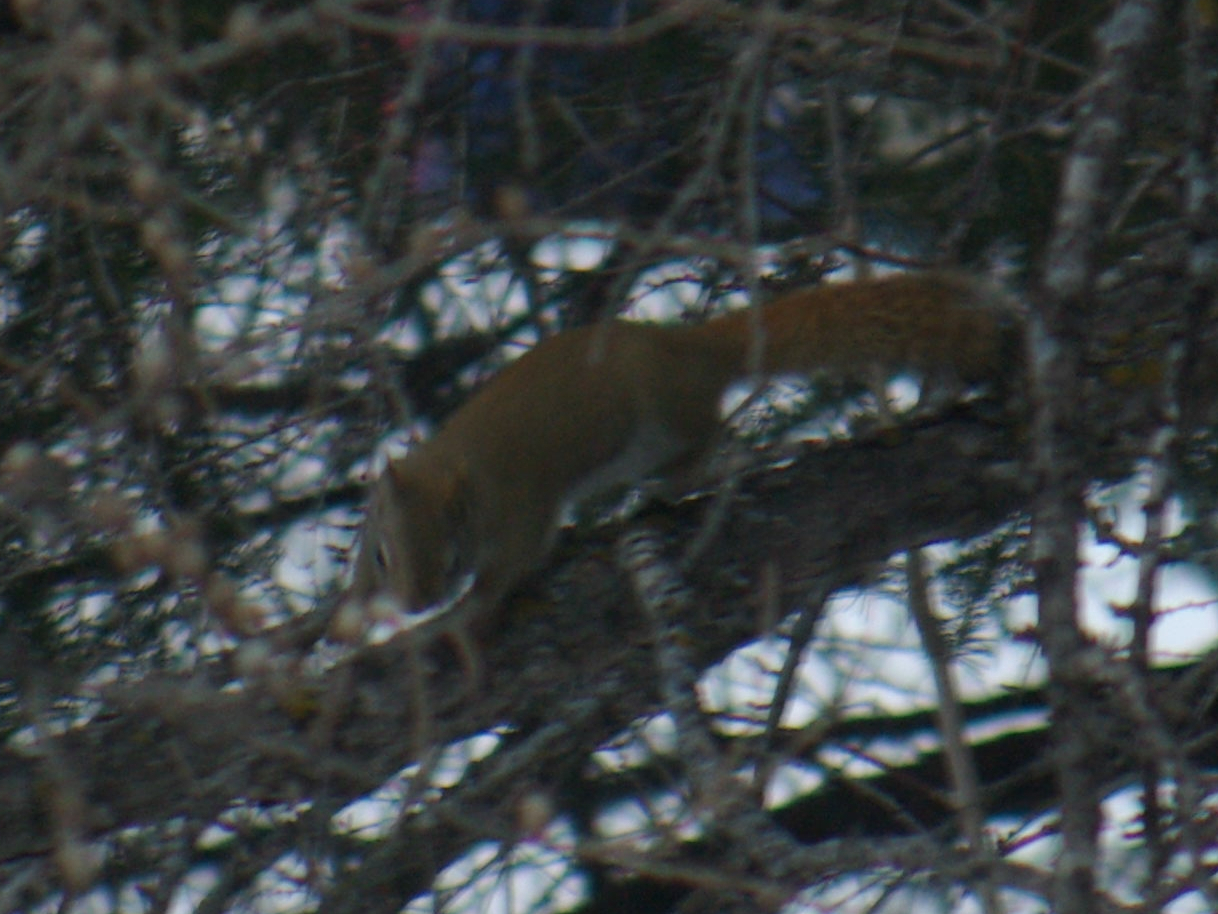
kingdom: Animalia
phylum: Chordata
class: Mammalia
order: Rodentia
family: Sciuridae
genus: Tamiasciurus
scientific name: Tamiasciurus hudsonicus
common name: Red squirrel
